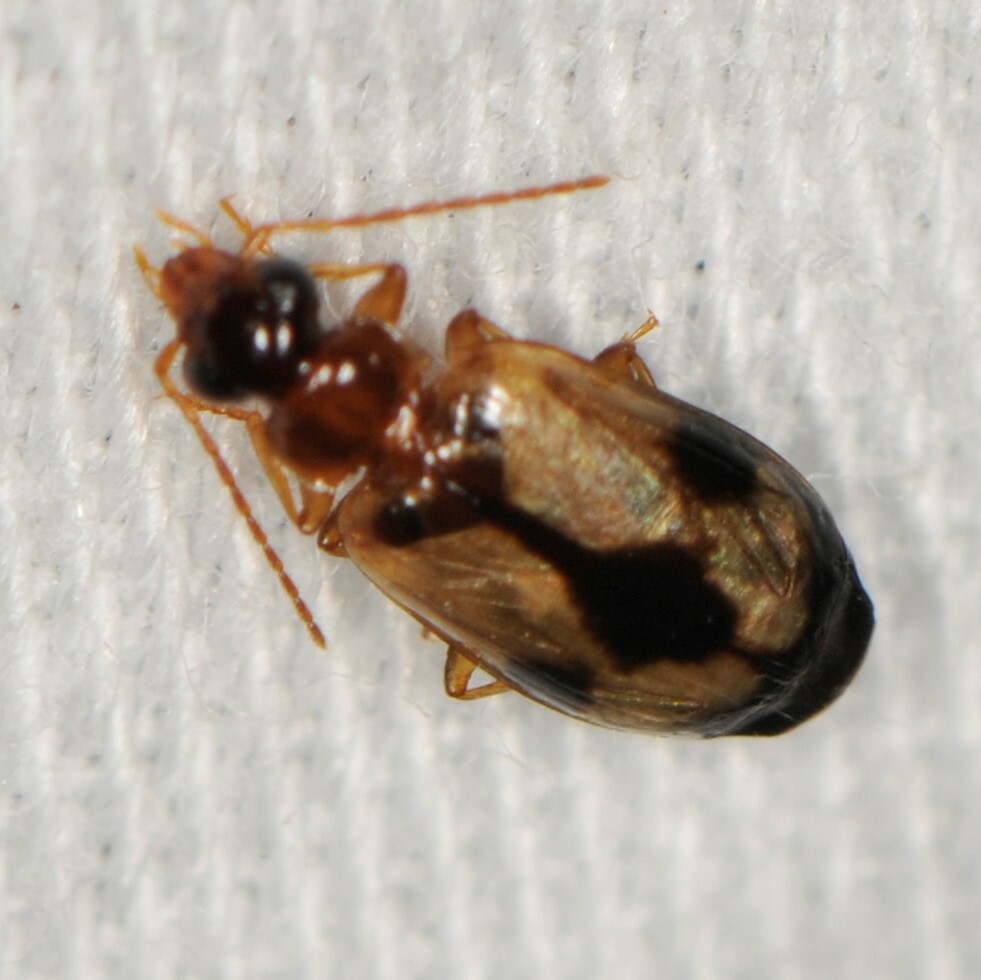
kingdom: Animalia
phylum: Arthropoda
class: Insecta
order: Coleoptera
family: Carabidae
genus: Lebia
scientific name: Lebia guttula
